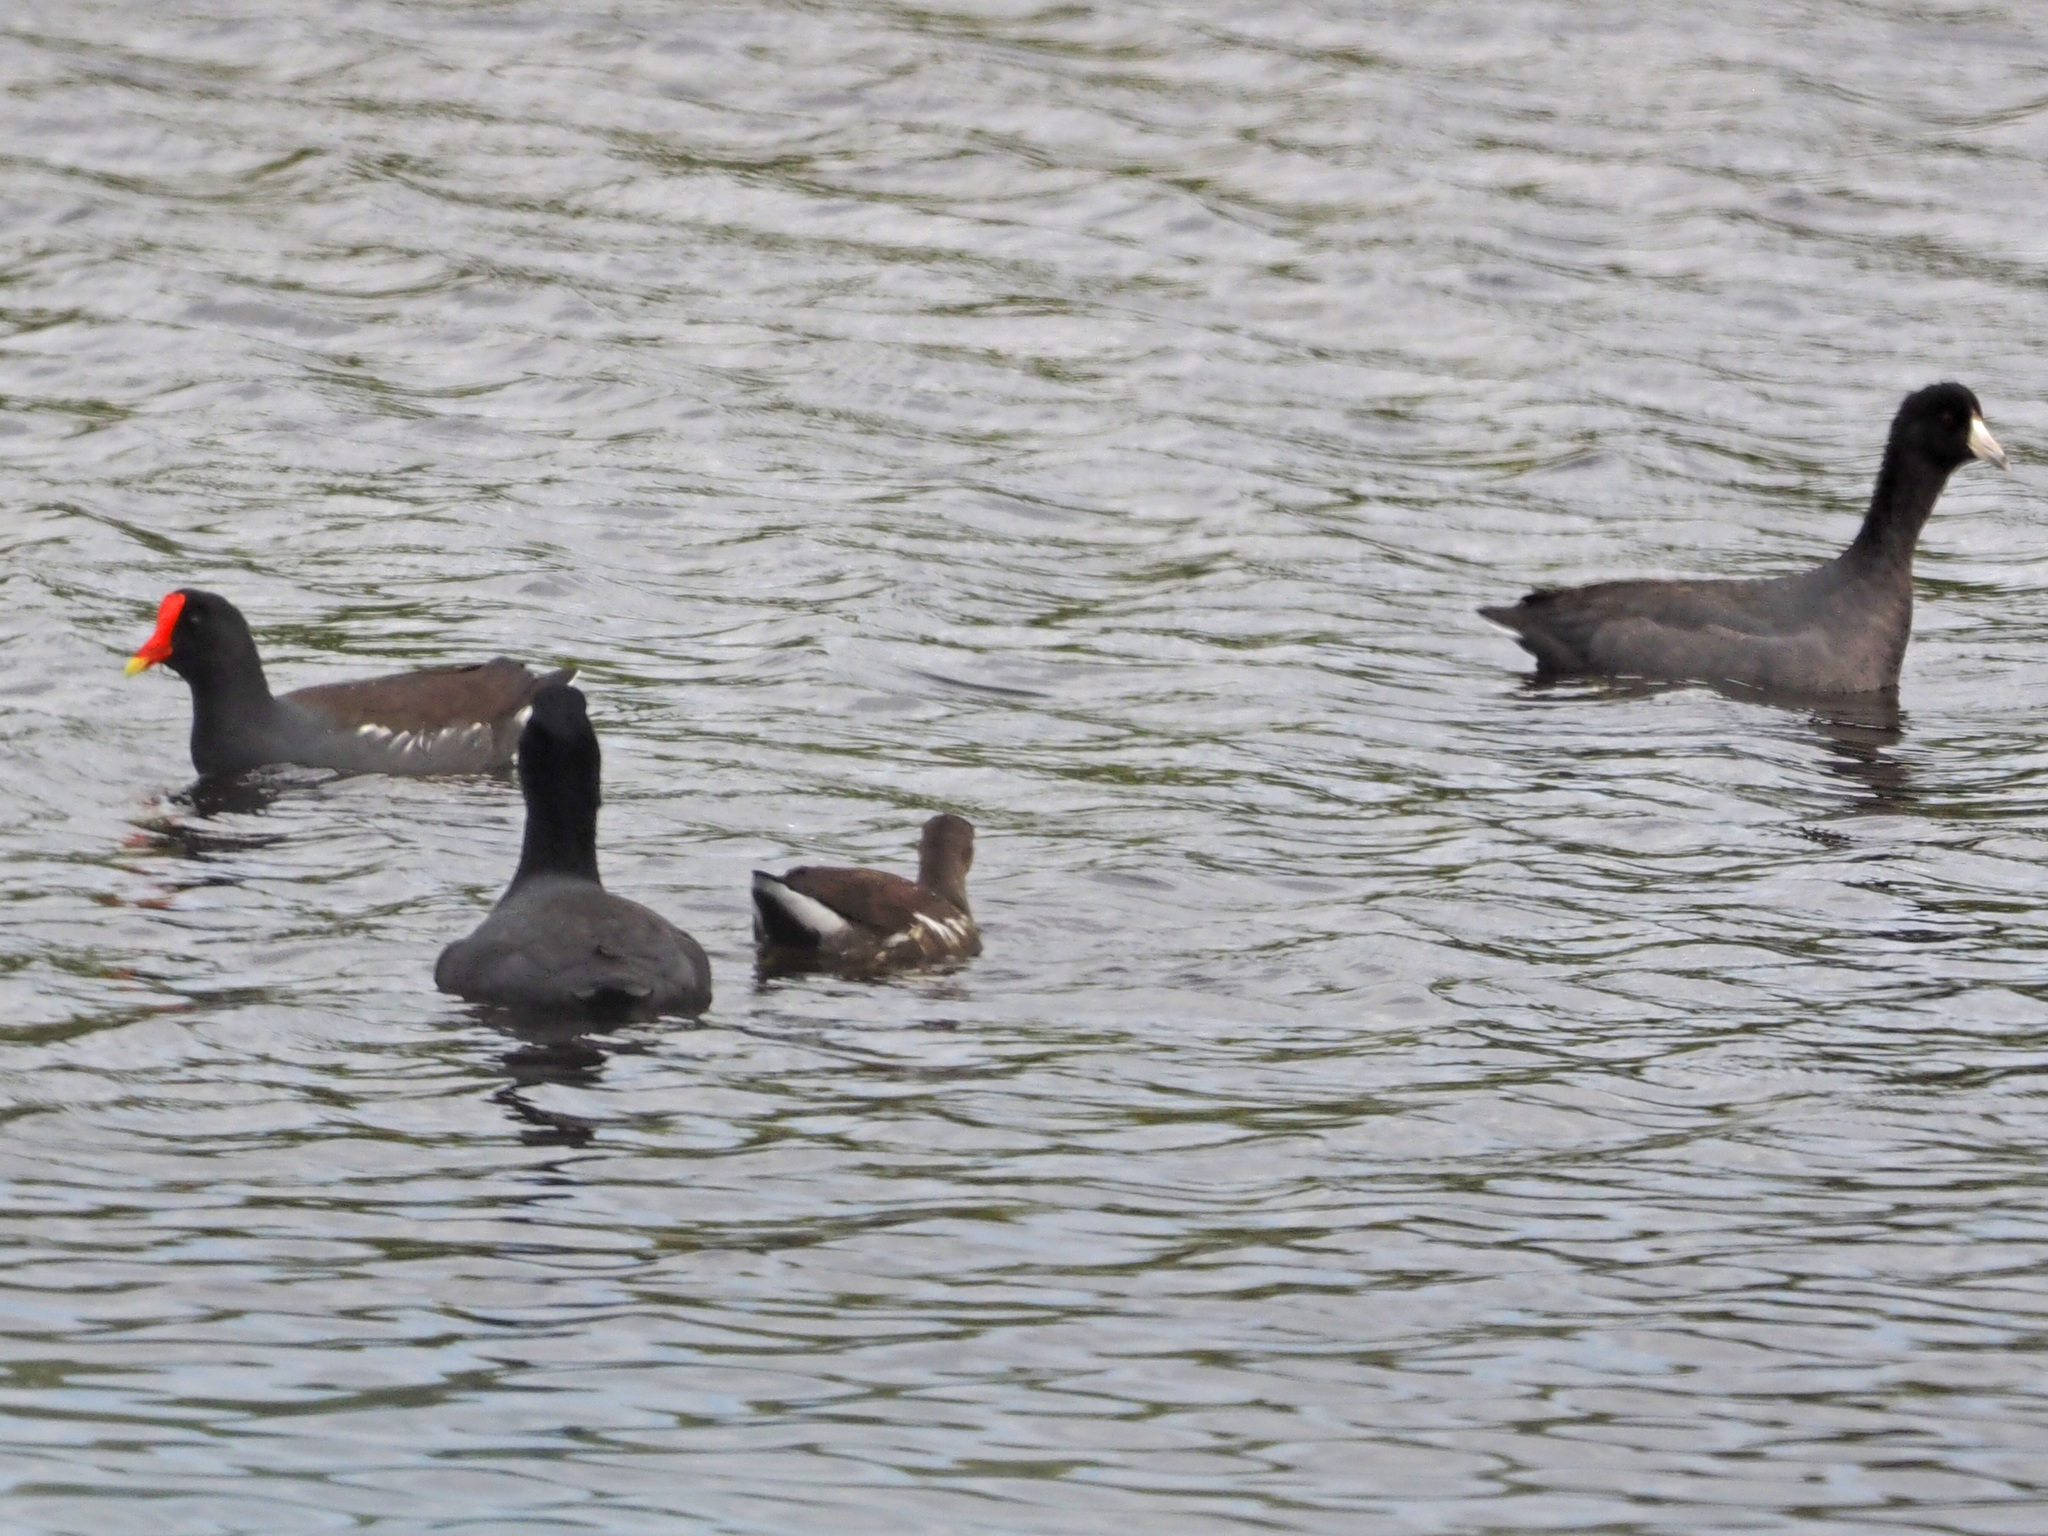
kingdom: Animalia
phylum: Chordata
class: Aves
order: Gruiformes
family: Rallidae
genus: Fulica
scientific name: Fulica americana
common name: American coot
